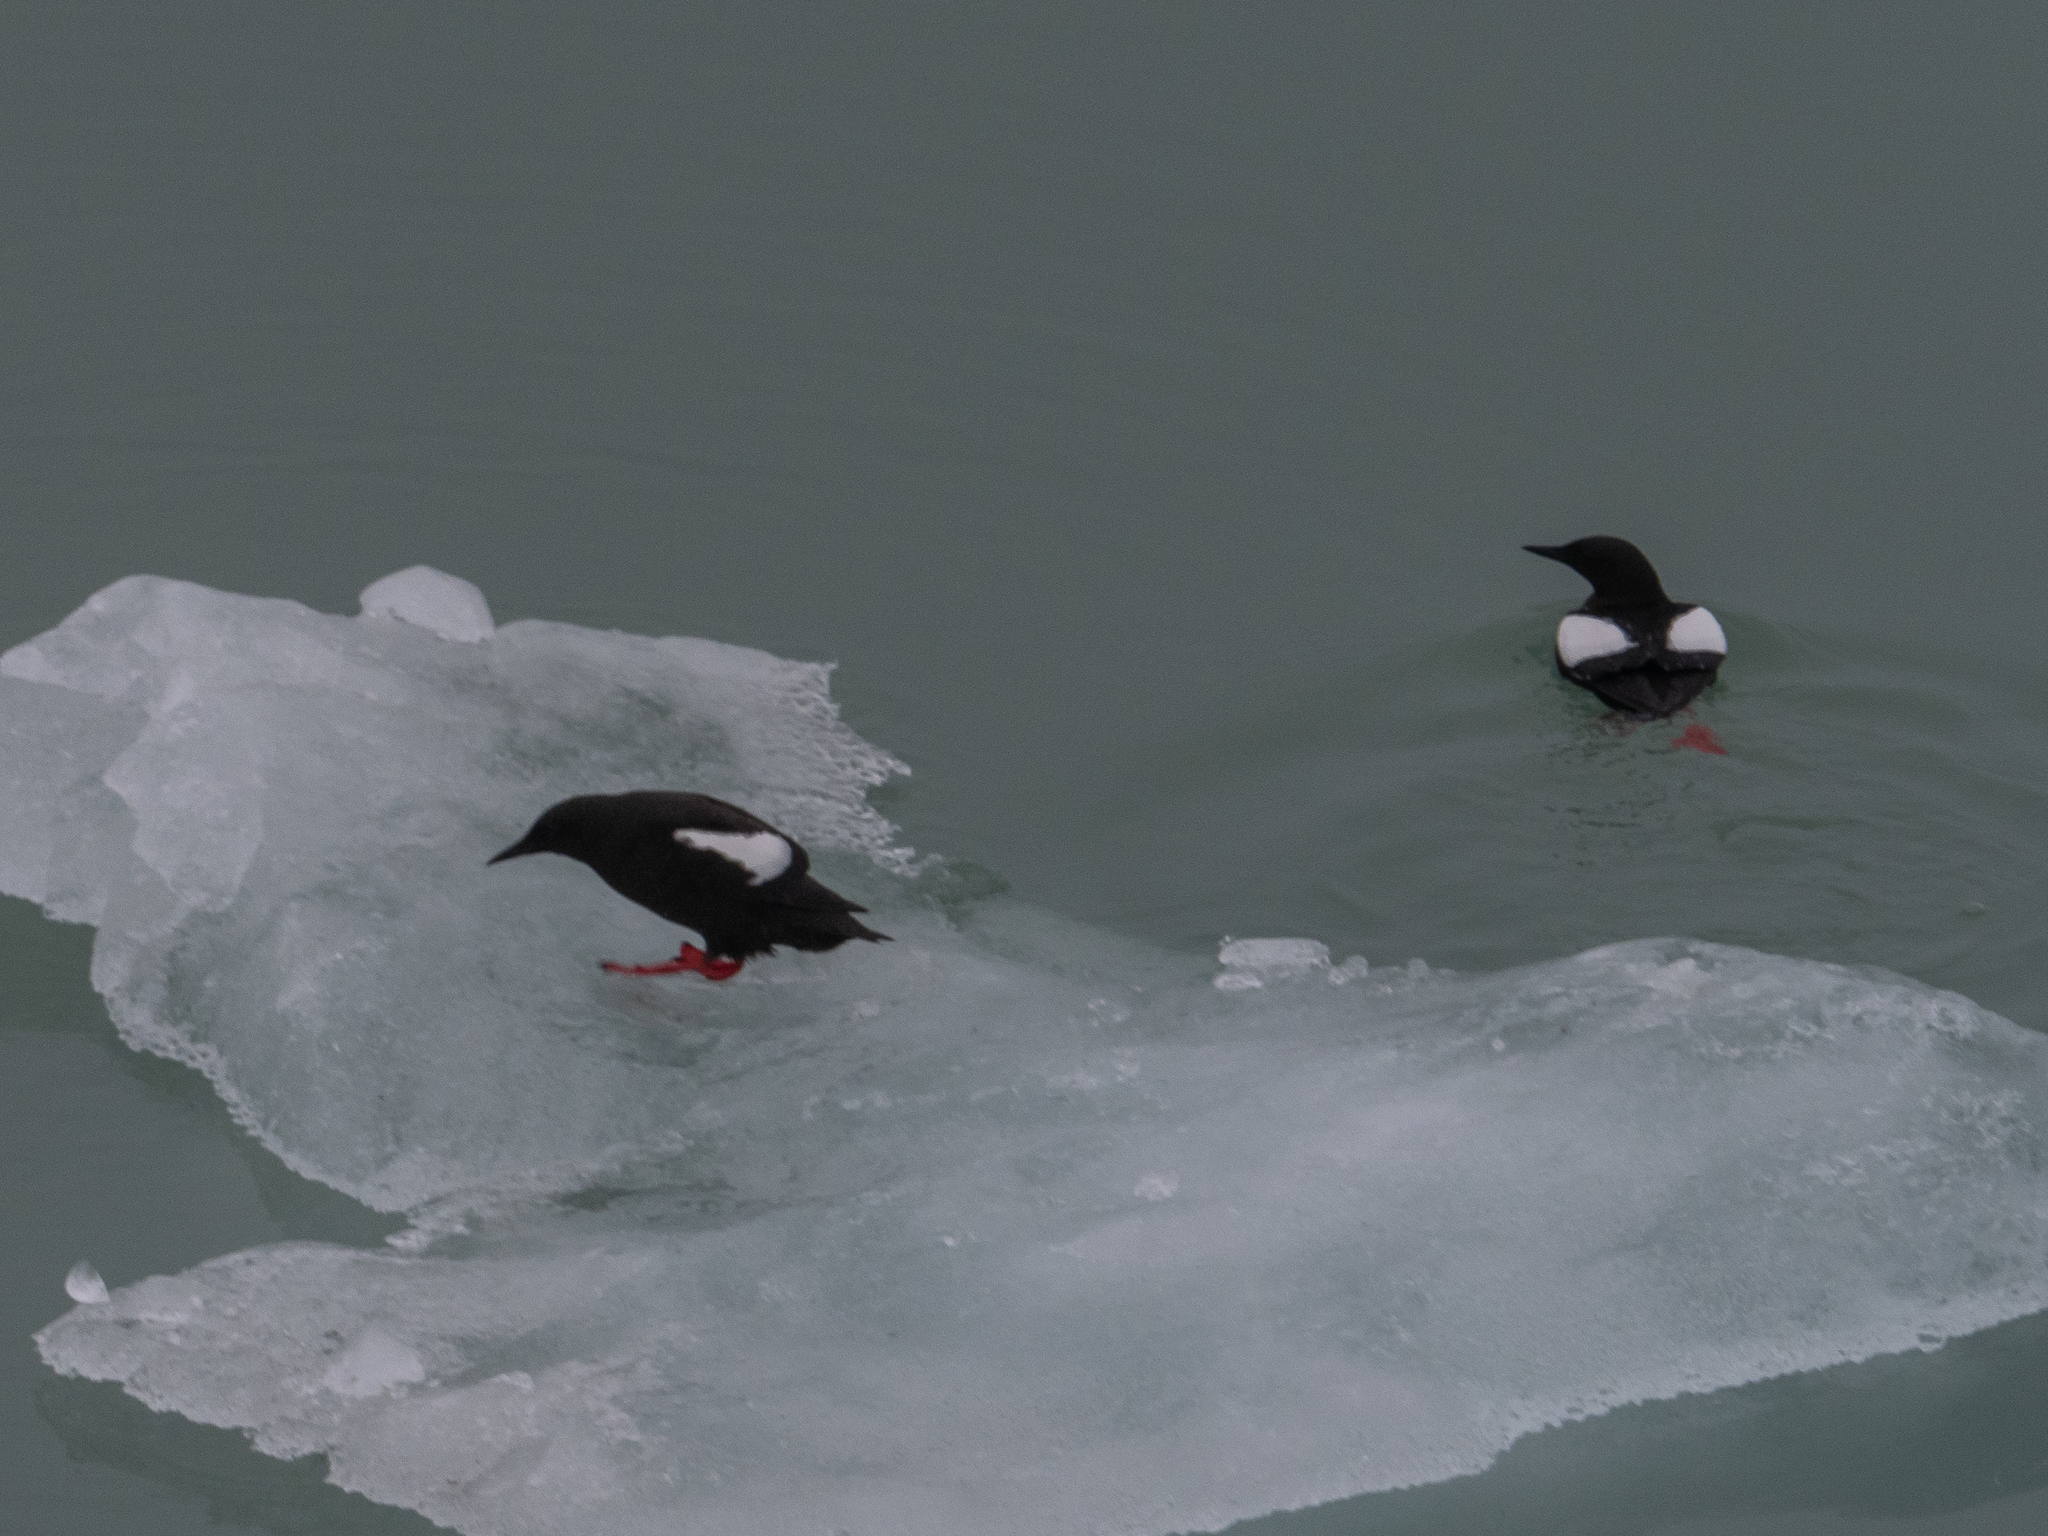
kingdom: Animalia
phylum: Chordata
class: Aves
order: Charadriiformes
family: Alcidae
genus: Cepphus
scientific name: Cepphus grylle
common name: Black guillemot
